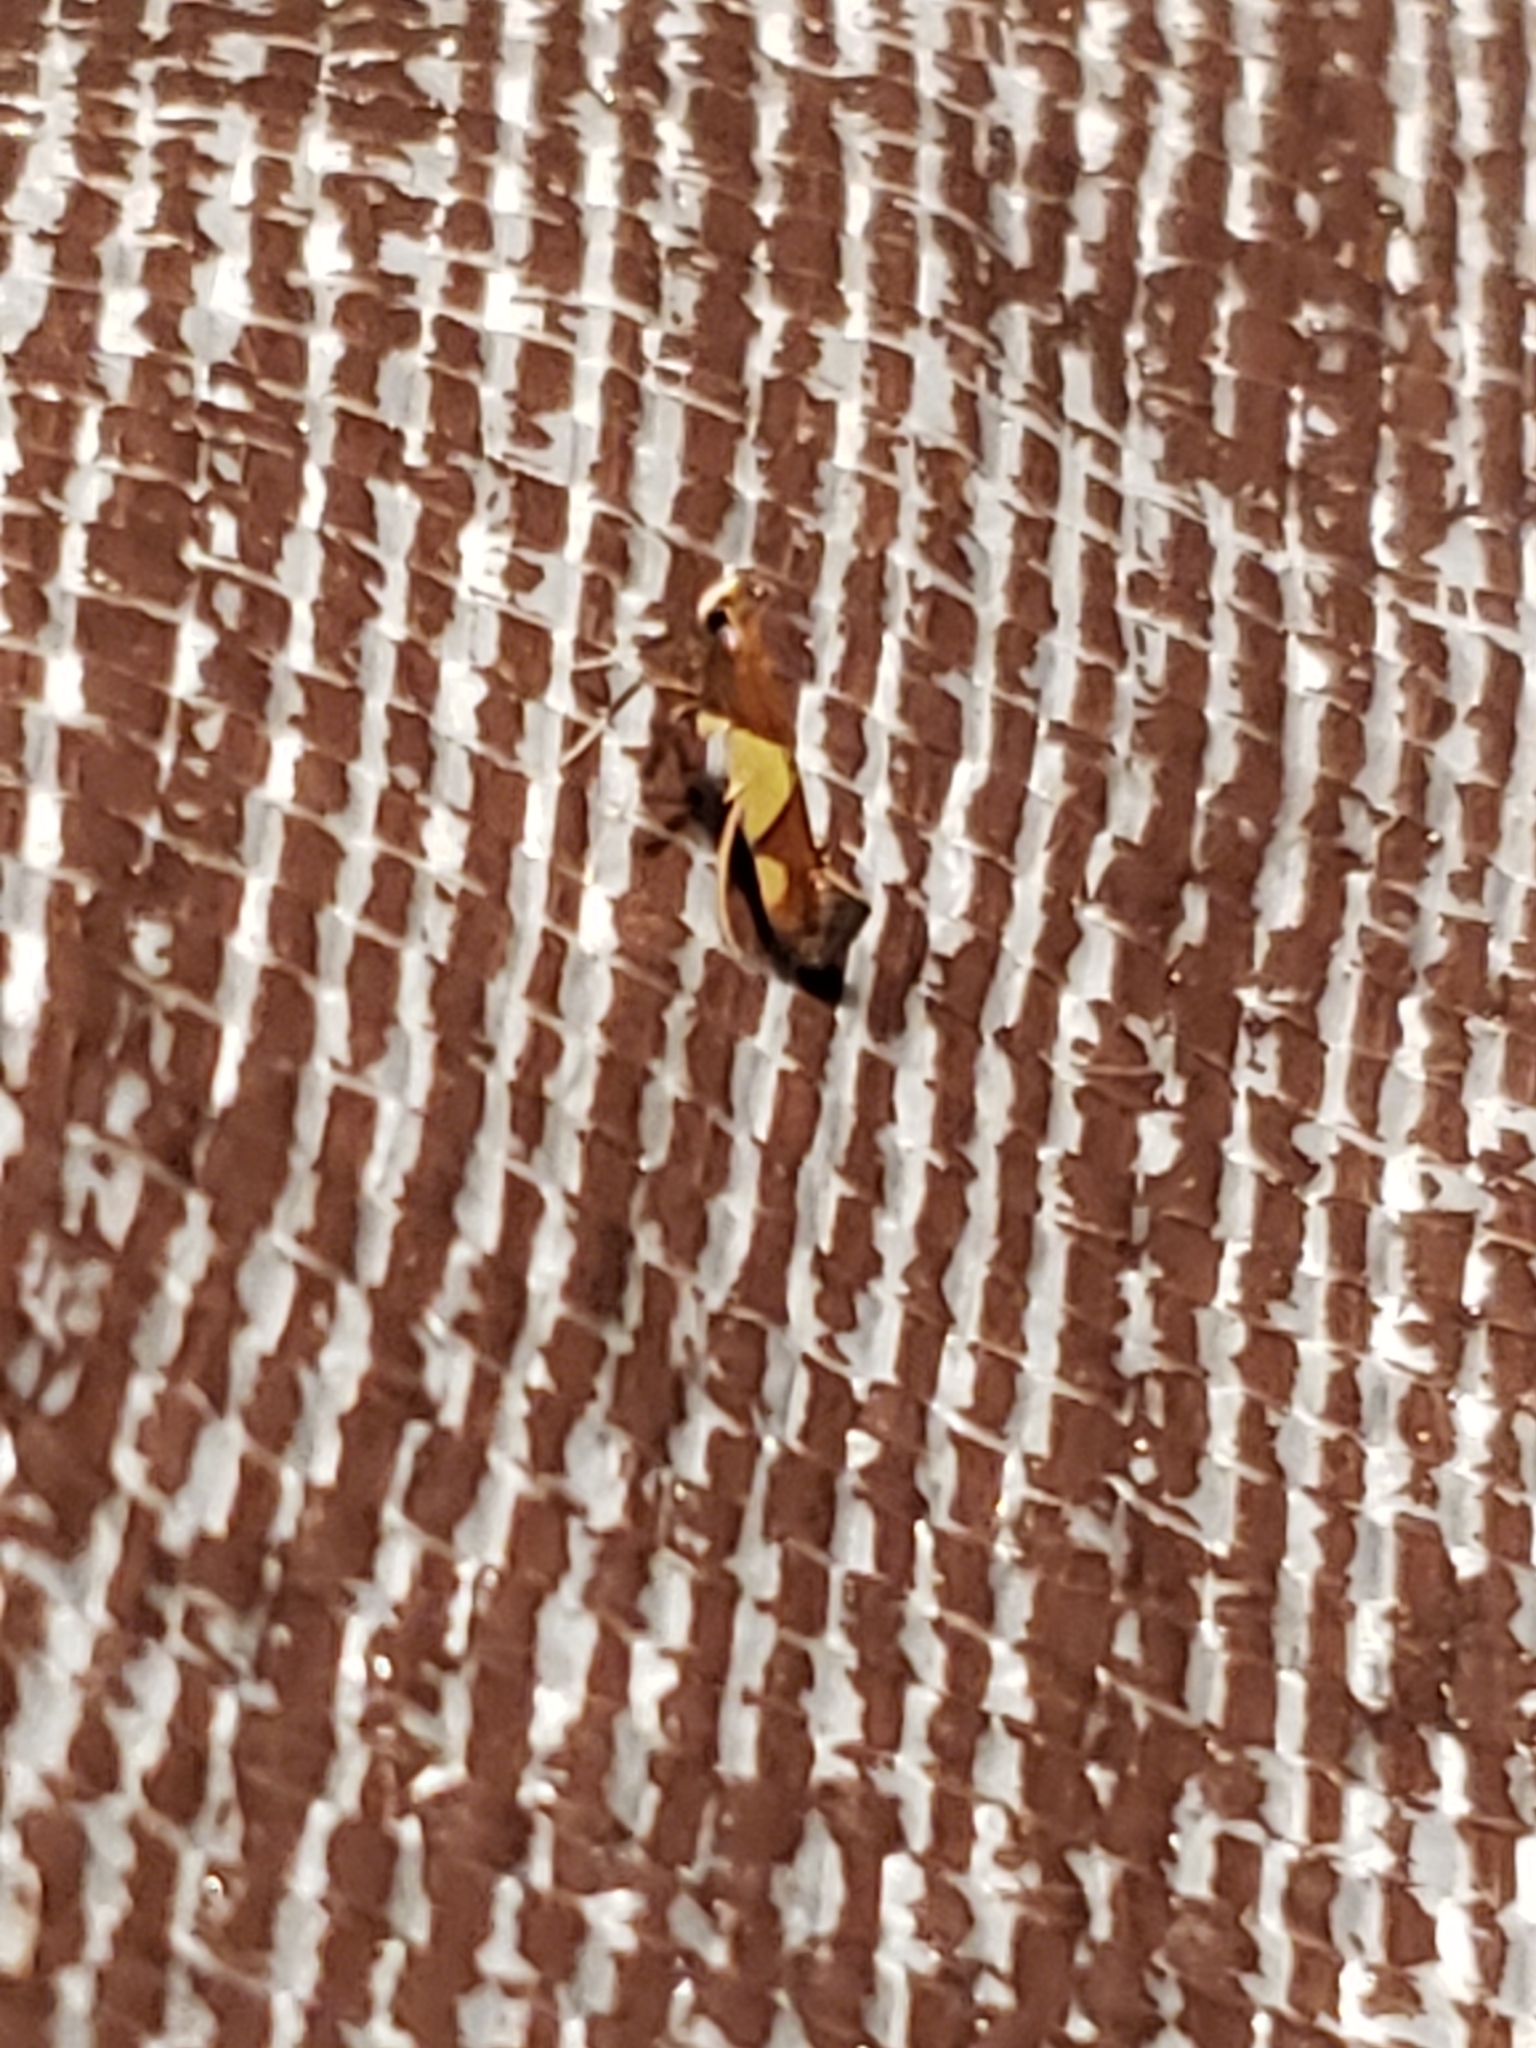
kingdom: Animalia
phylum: Arthropoda
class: Insecta
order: Lepidoptera
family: Gracillariidae
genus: Caloptilia
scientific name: Caloptilia bimaculatella
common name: Maple caloptilia moth
